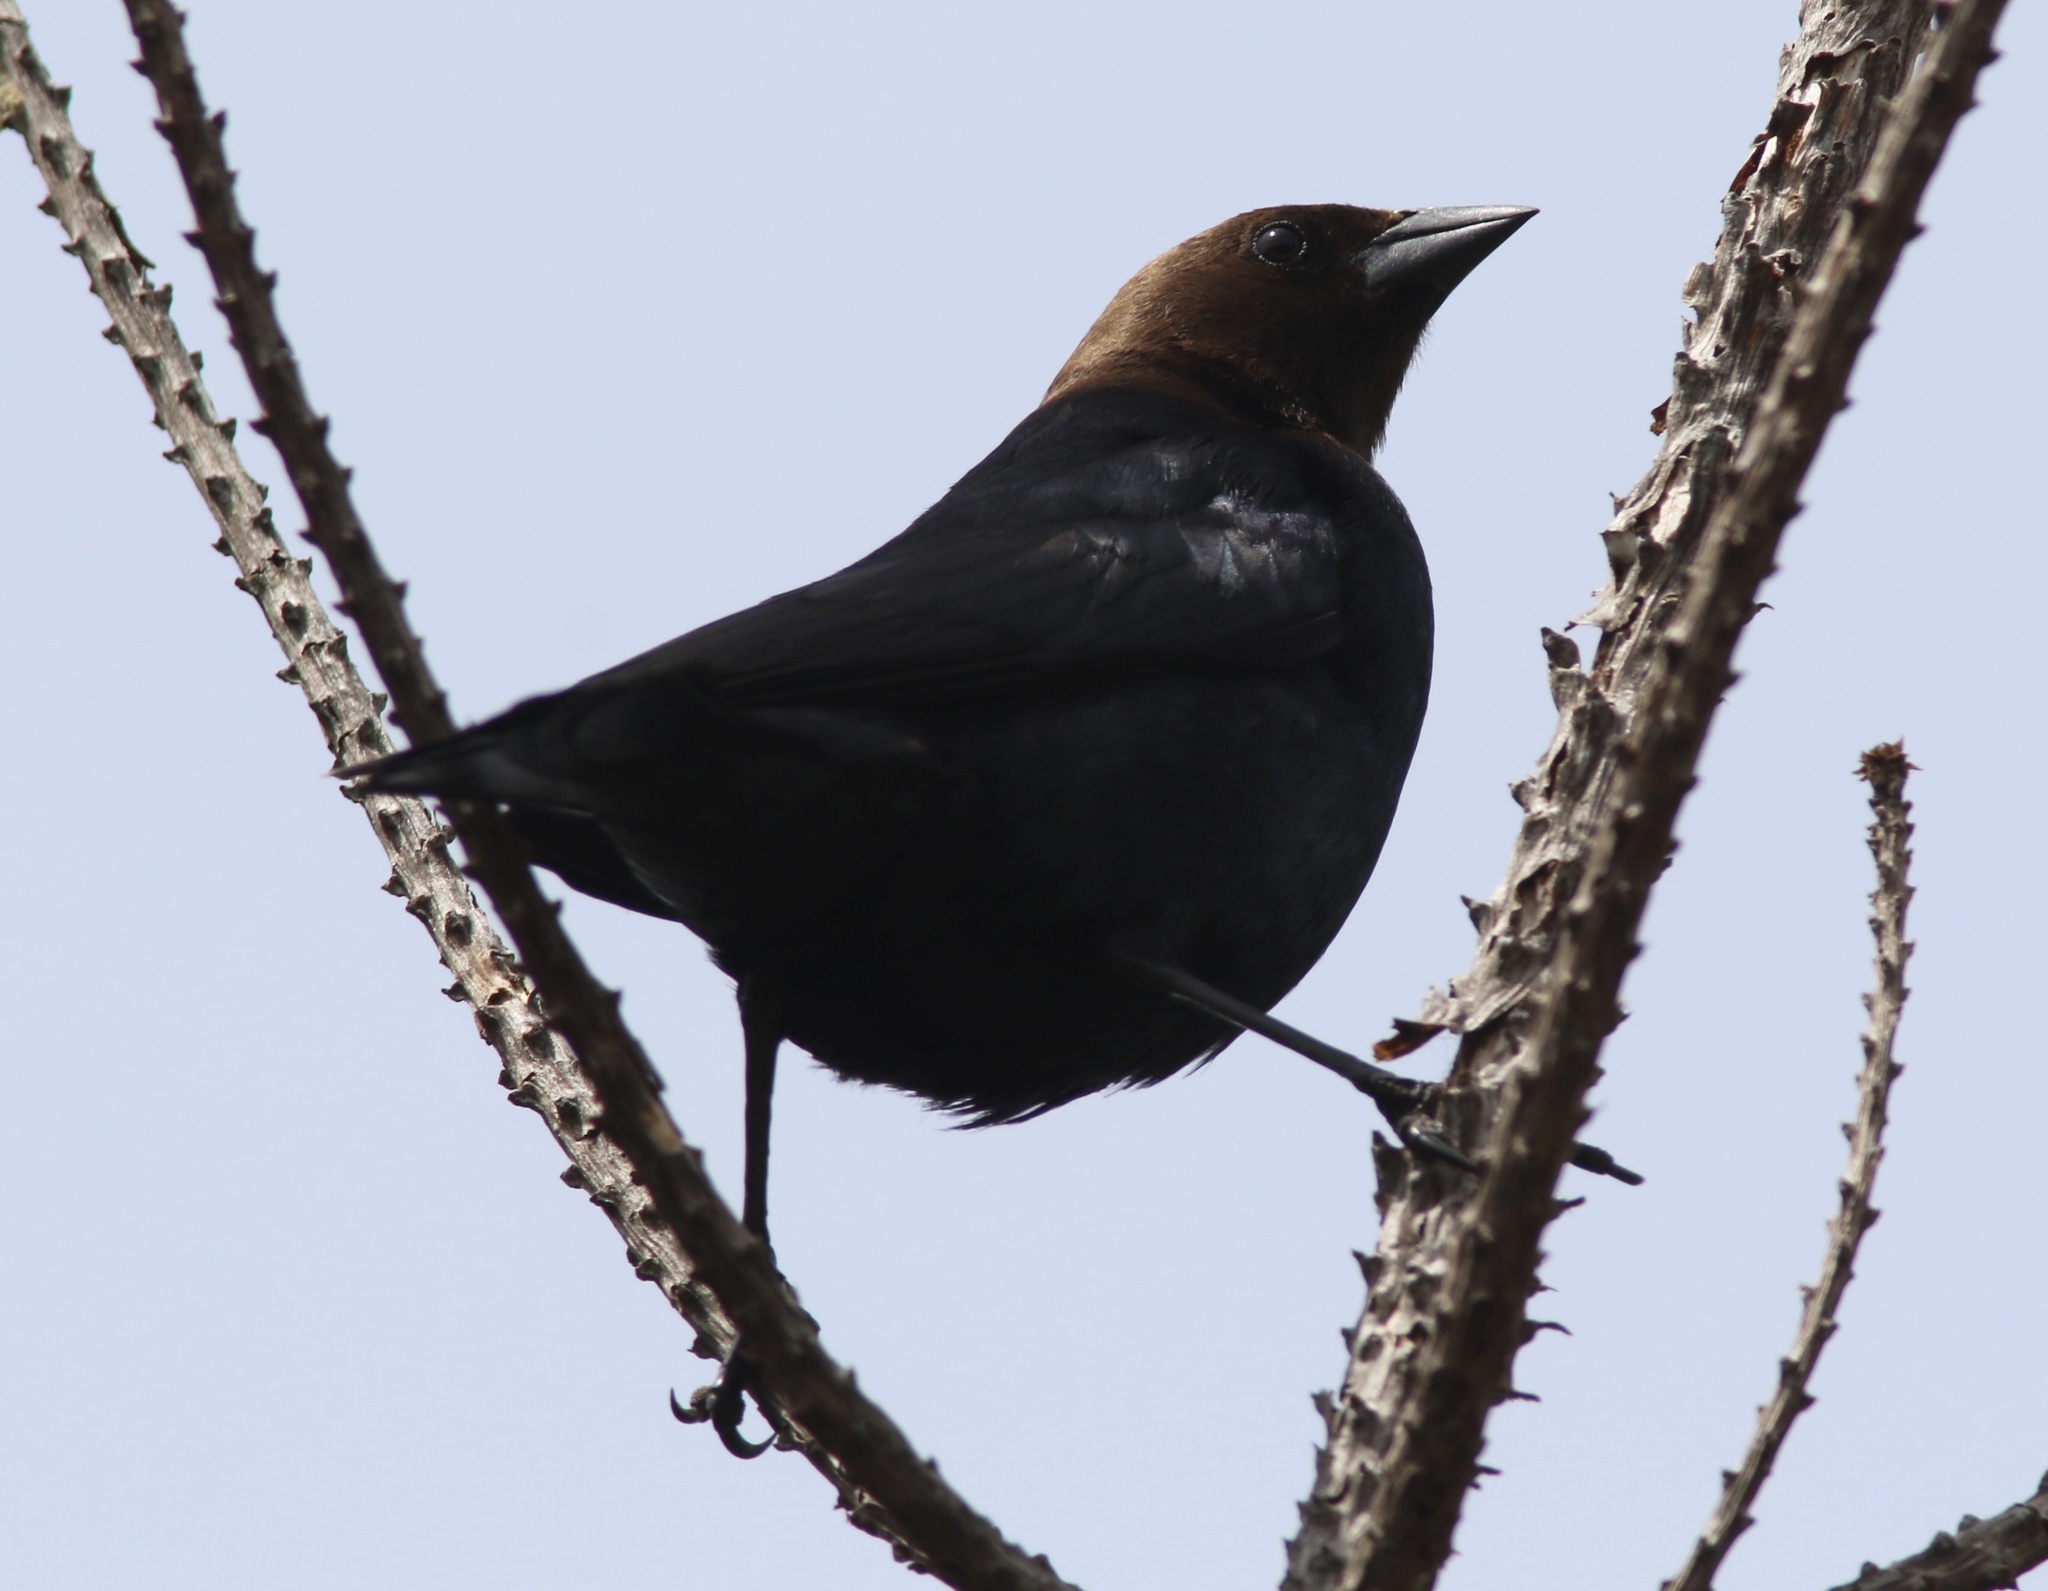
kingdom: Animalia
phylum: Chordata
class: Aves
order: Passeriformes
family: Icteridae
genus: Molothrus
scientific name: Molothrus ater
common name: Brown-headed cowbird
